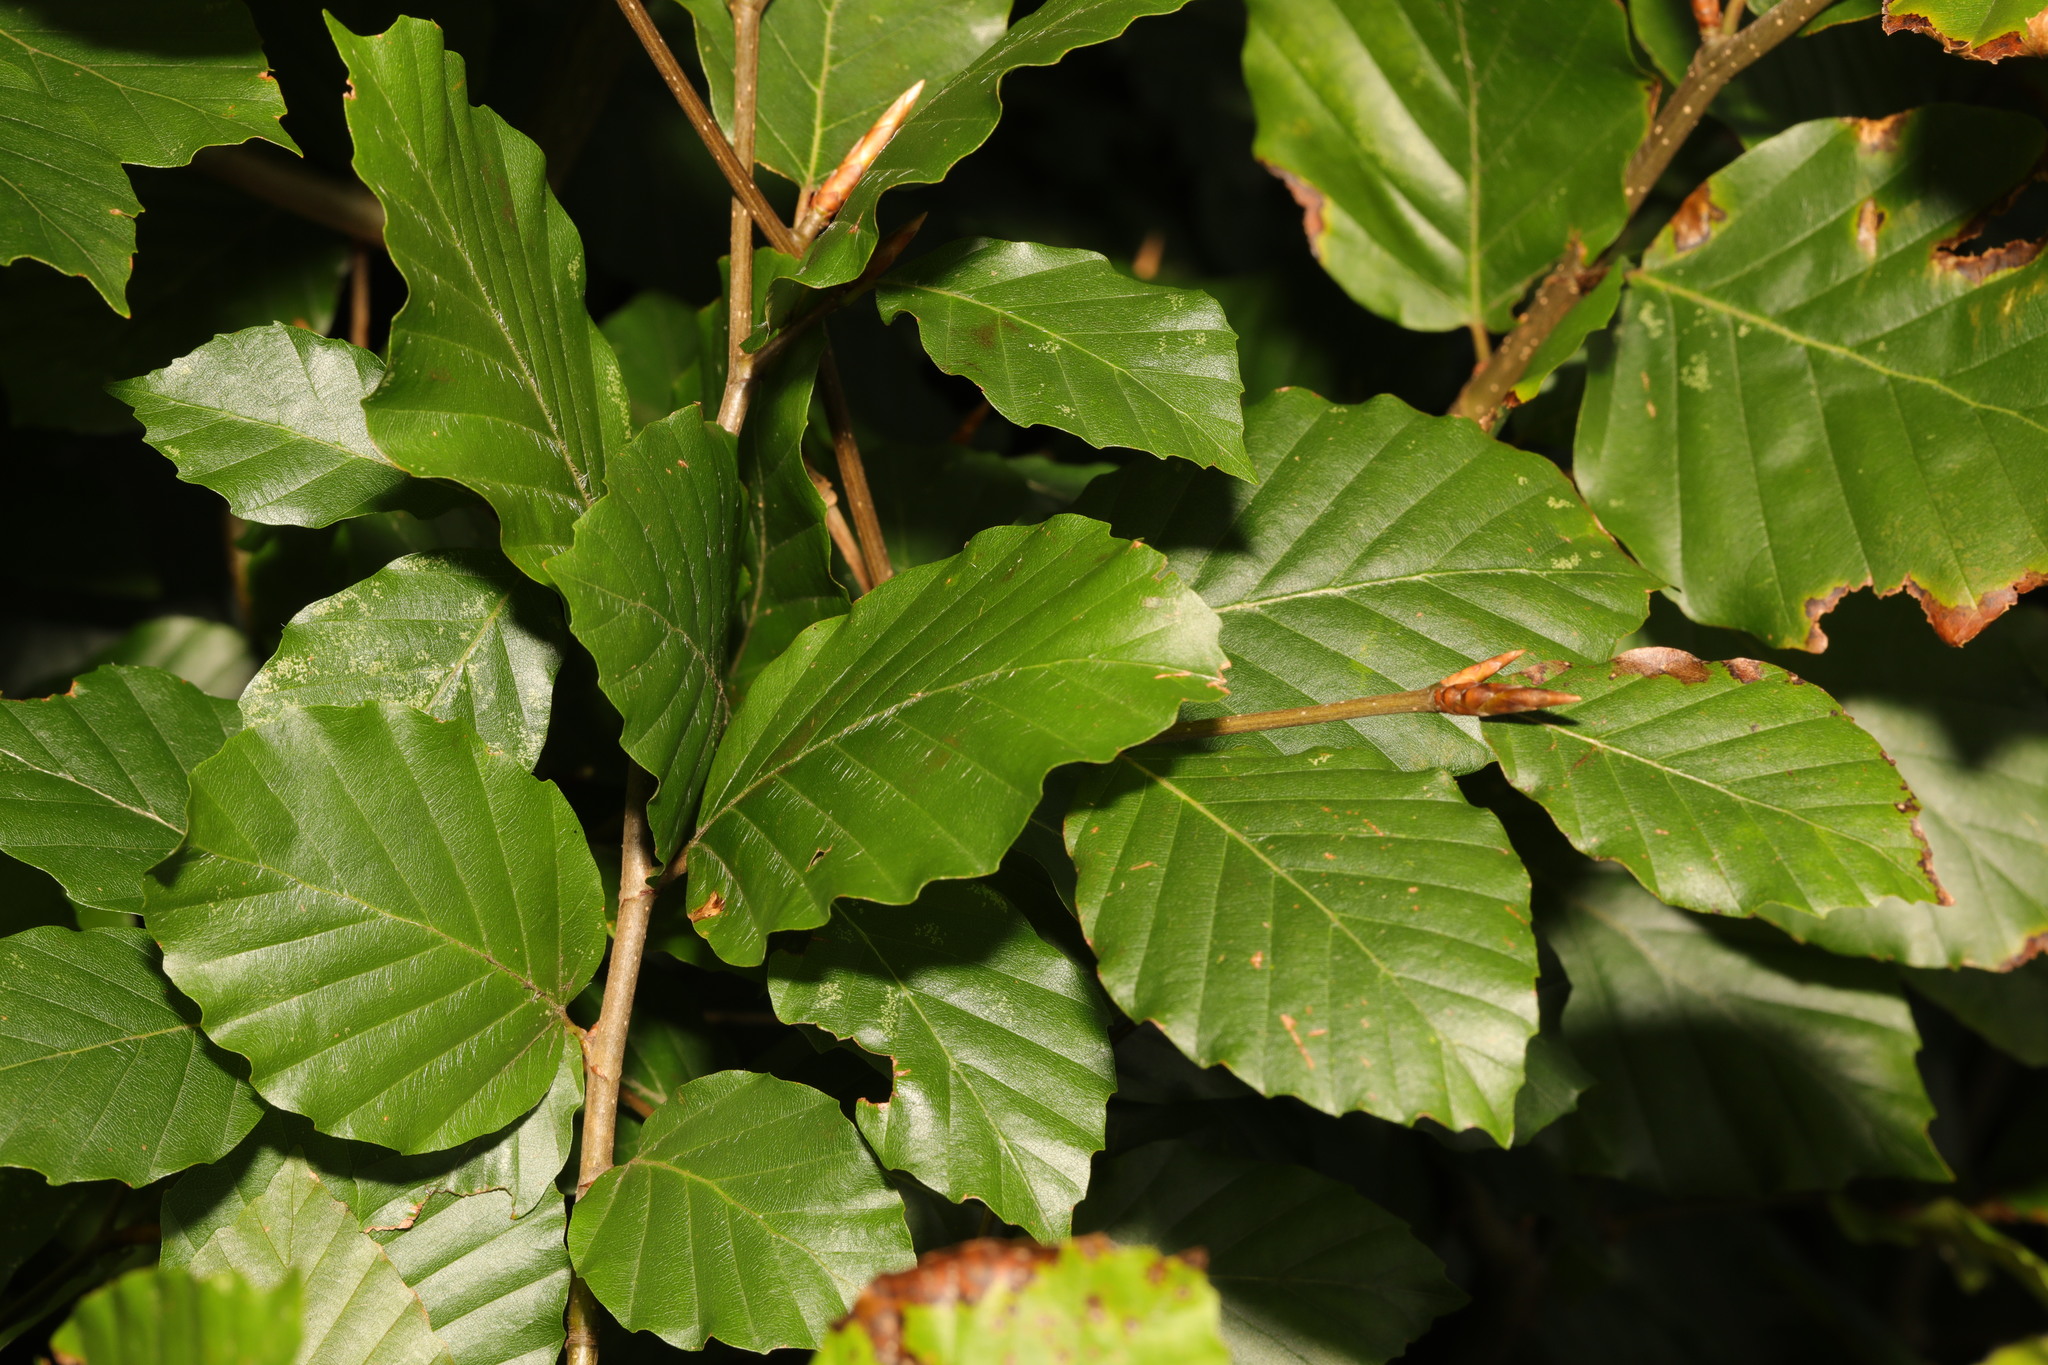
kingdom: Plantae
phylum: Tracheophyta
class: Magnoliopsida
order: Fagales
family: Fagaceae
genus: Fagus
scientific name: Fagus sylvatica
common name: Beech
